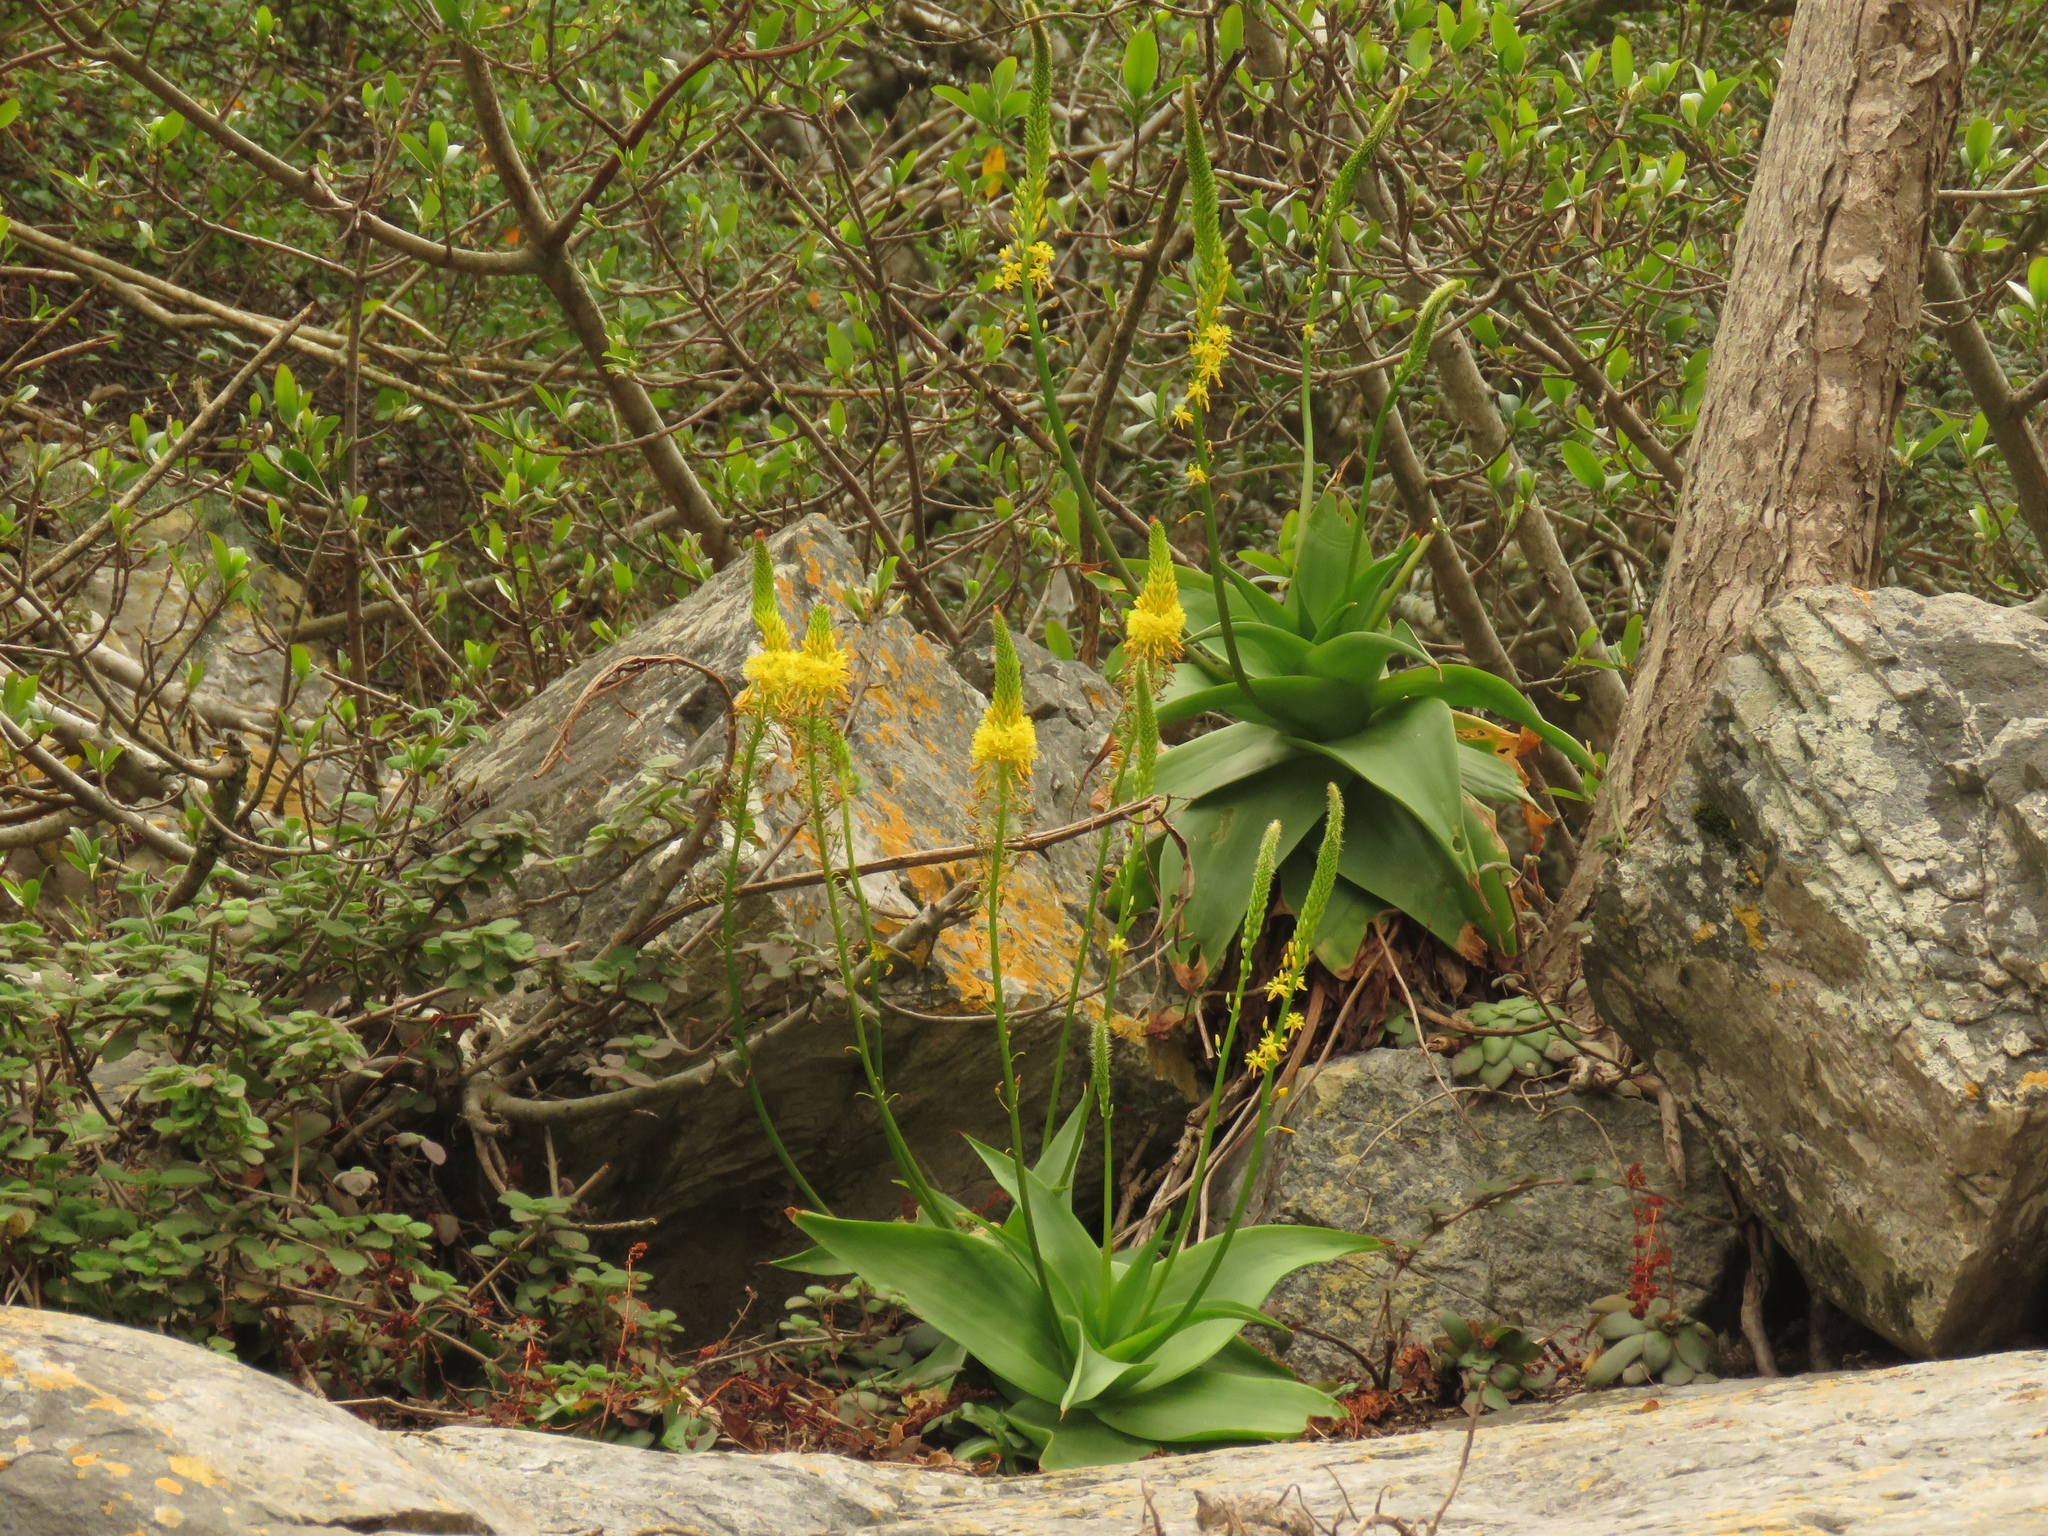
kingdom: Plantae
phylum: Tracheophyta
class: Liliopsida
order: Asparagales
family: Asphodelaceae
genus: Bulbine
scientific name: Bulbine latifolia
